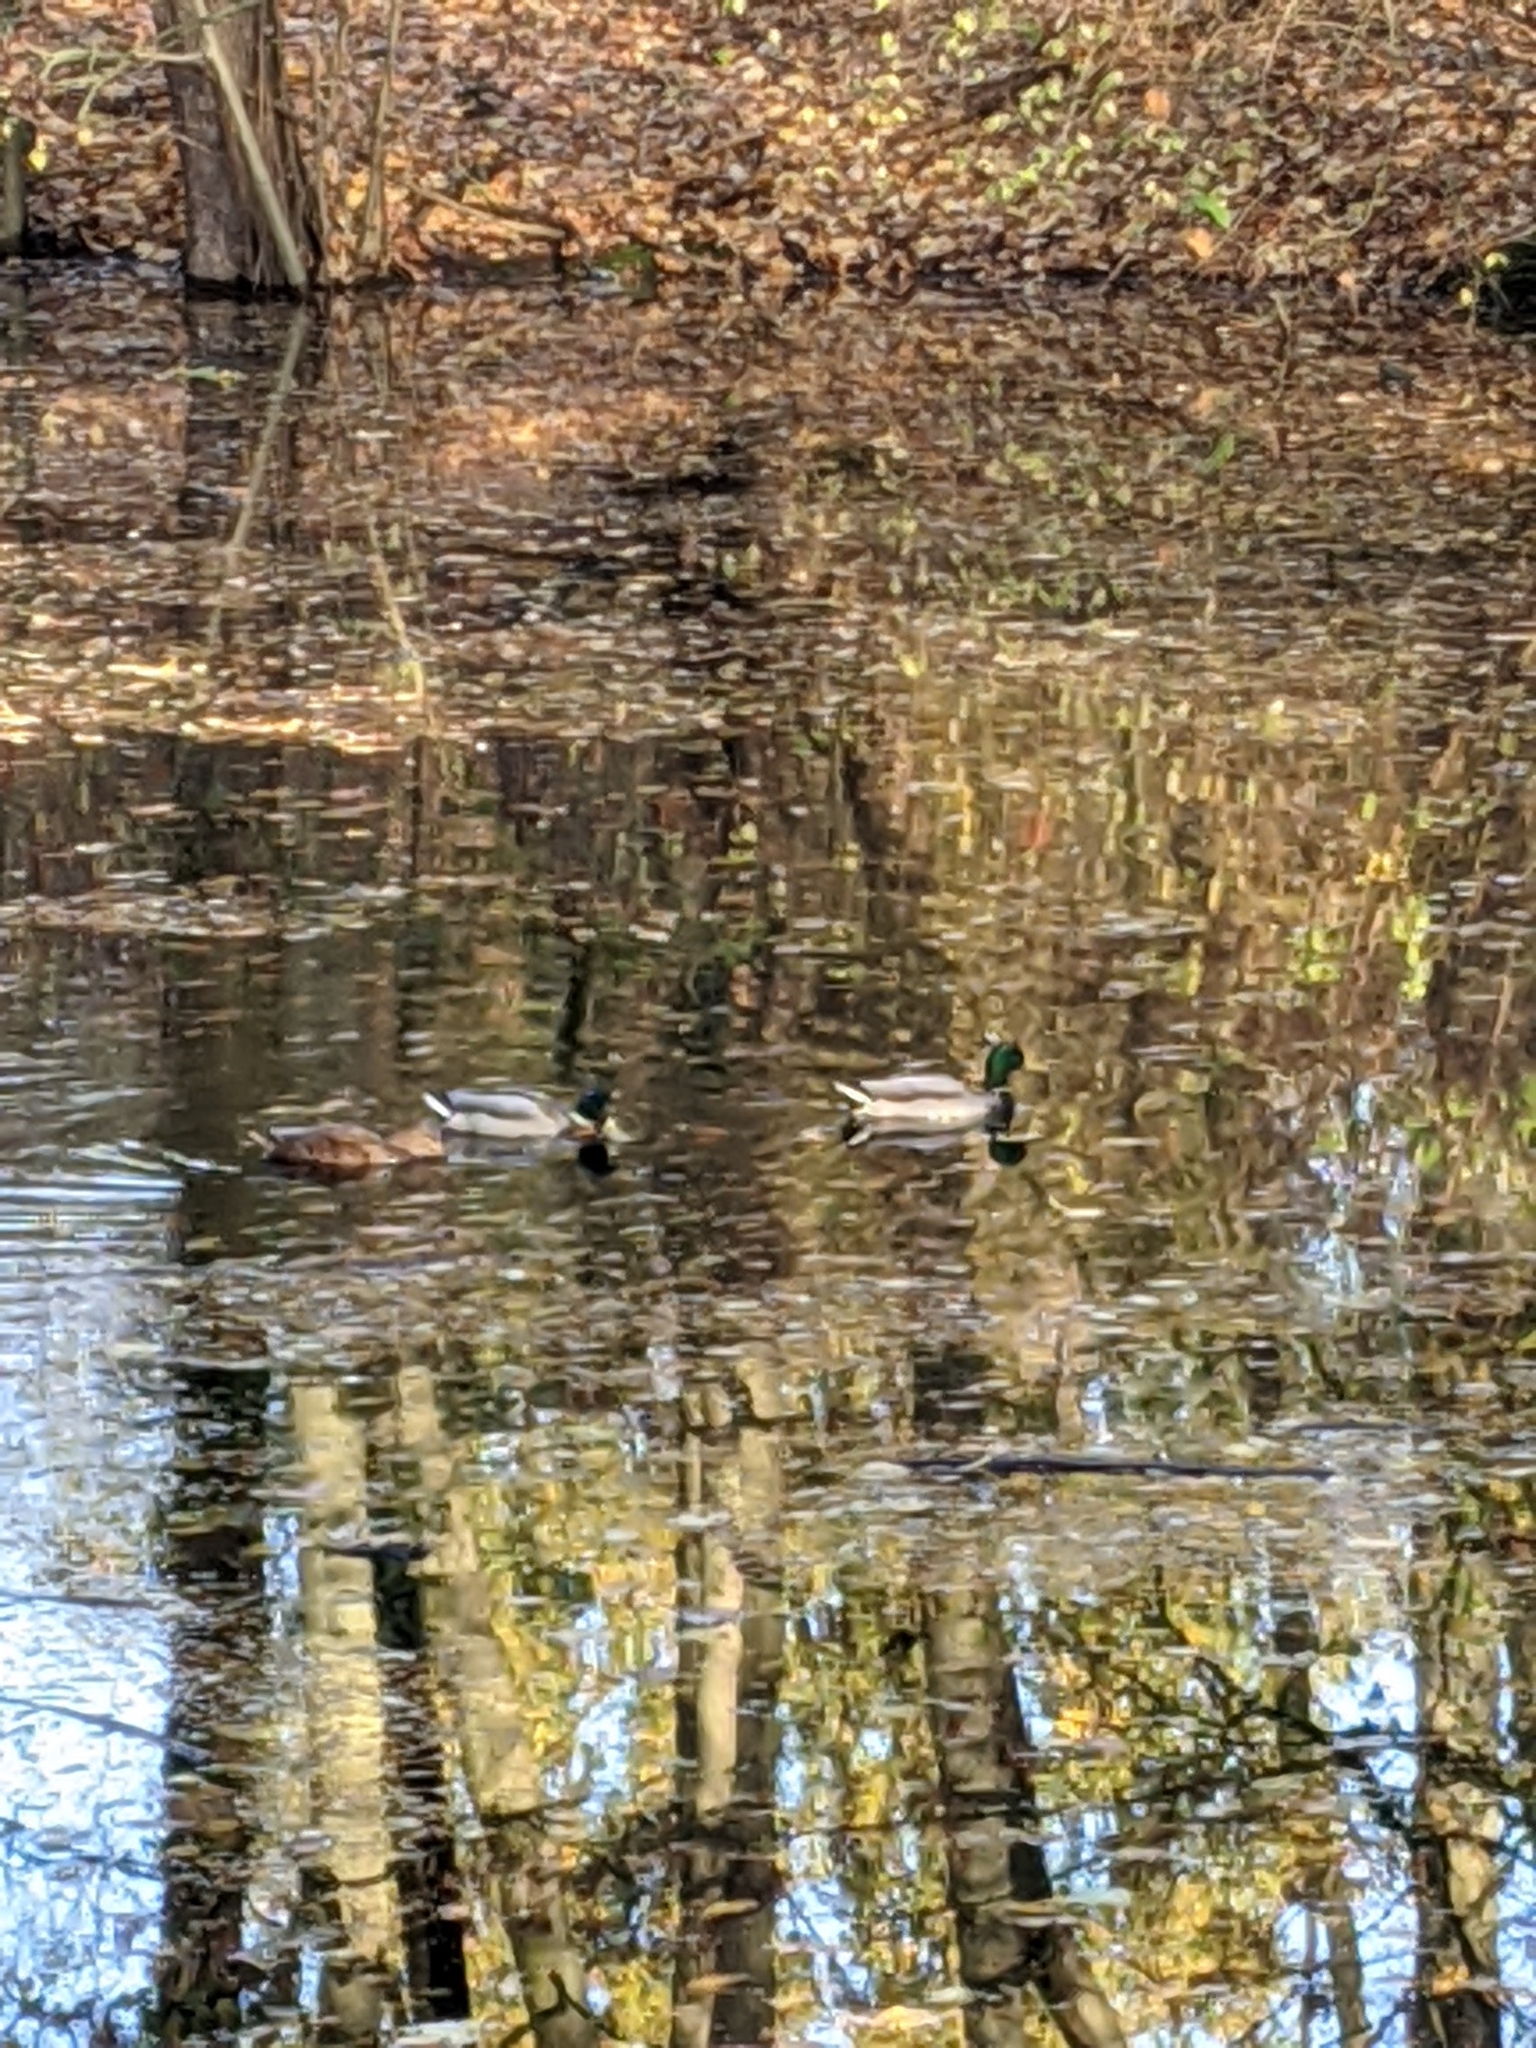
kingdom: Animalia
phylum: Chordata
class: Aves
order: Anseriformes
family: Anatidae
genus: Anas
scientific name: Anas platyrhynchos
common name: Mallard
